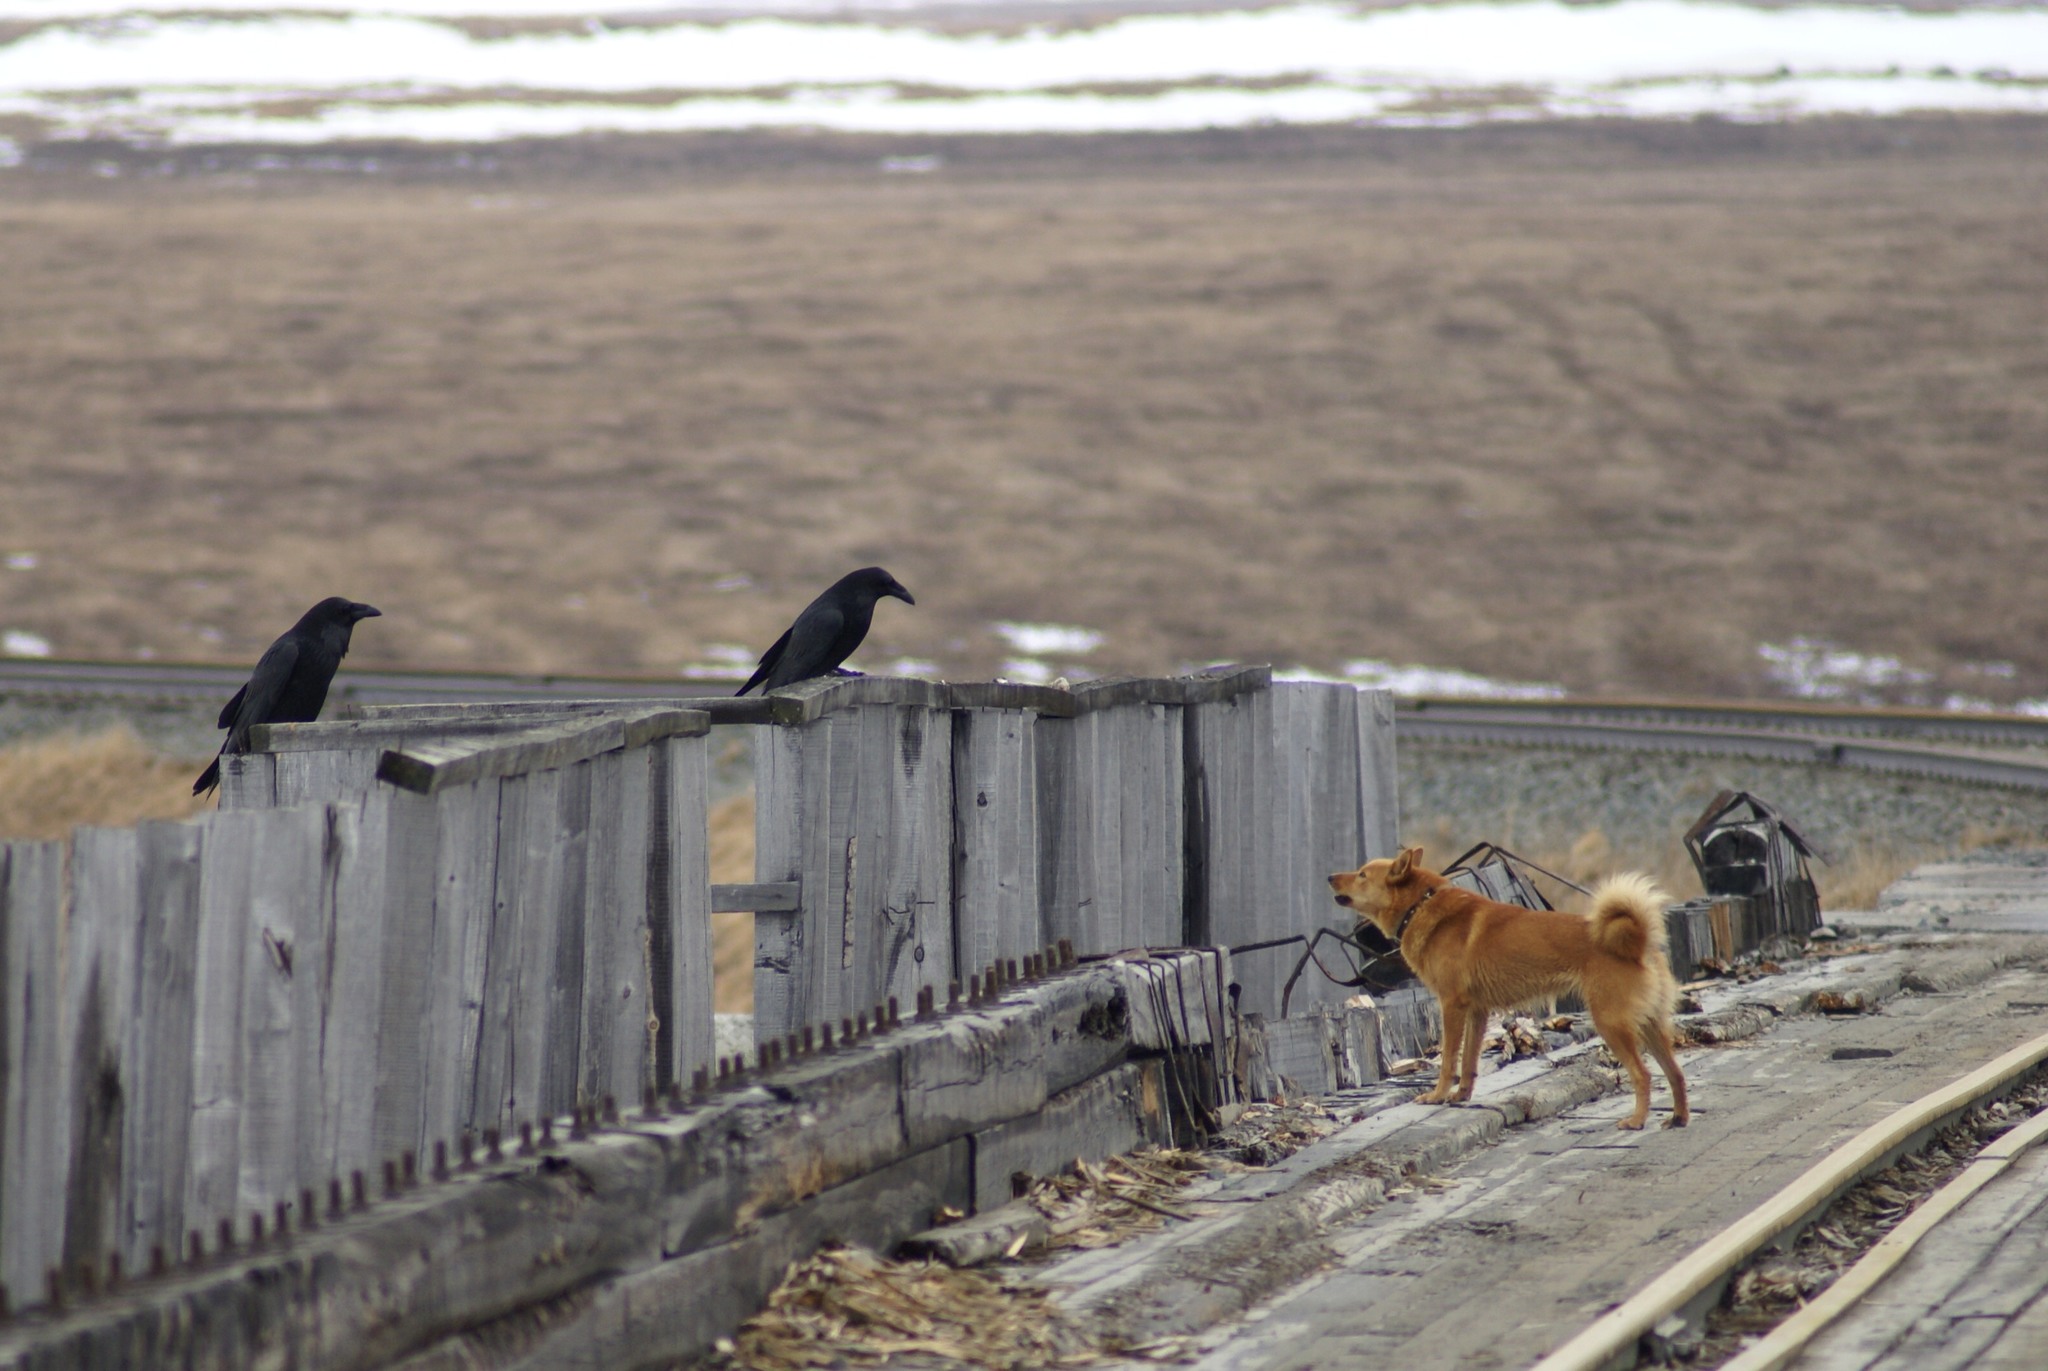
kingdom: Animalia
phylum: Chordata
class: Aves
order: Passeriformes
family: Corvidae
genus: Corvus
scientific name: Corvus corax
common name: Common raven
